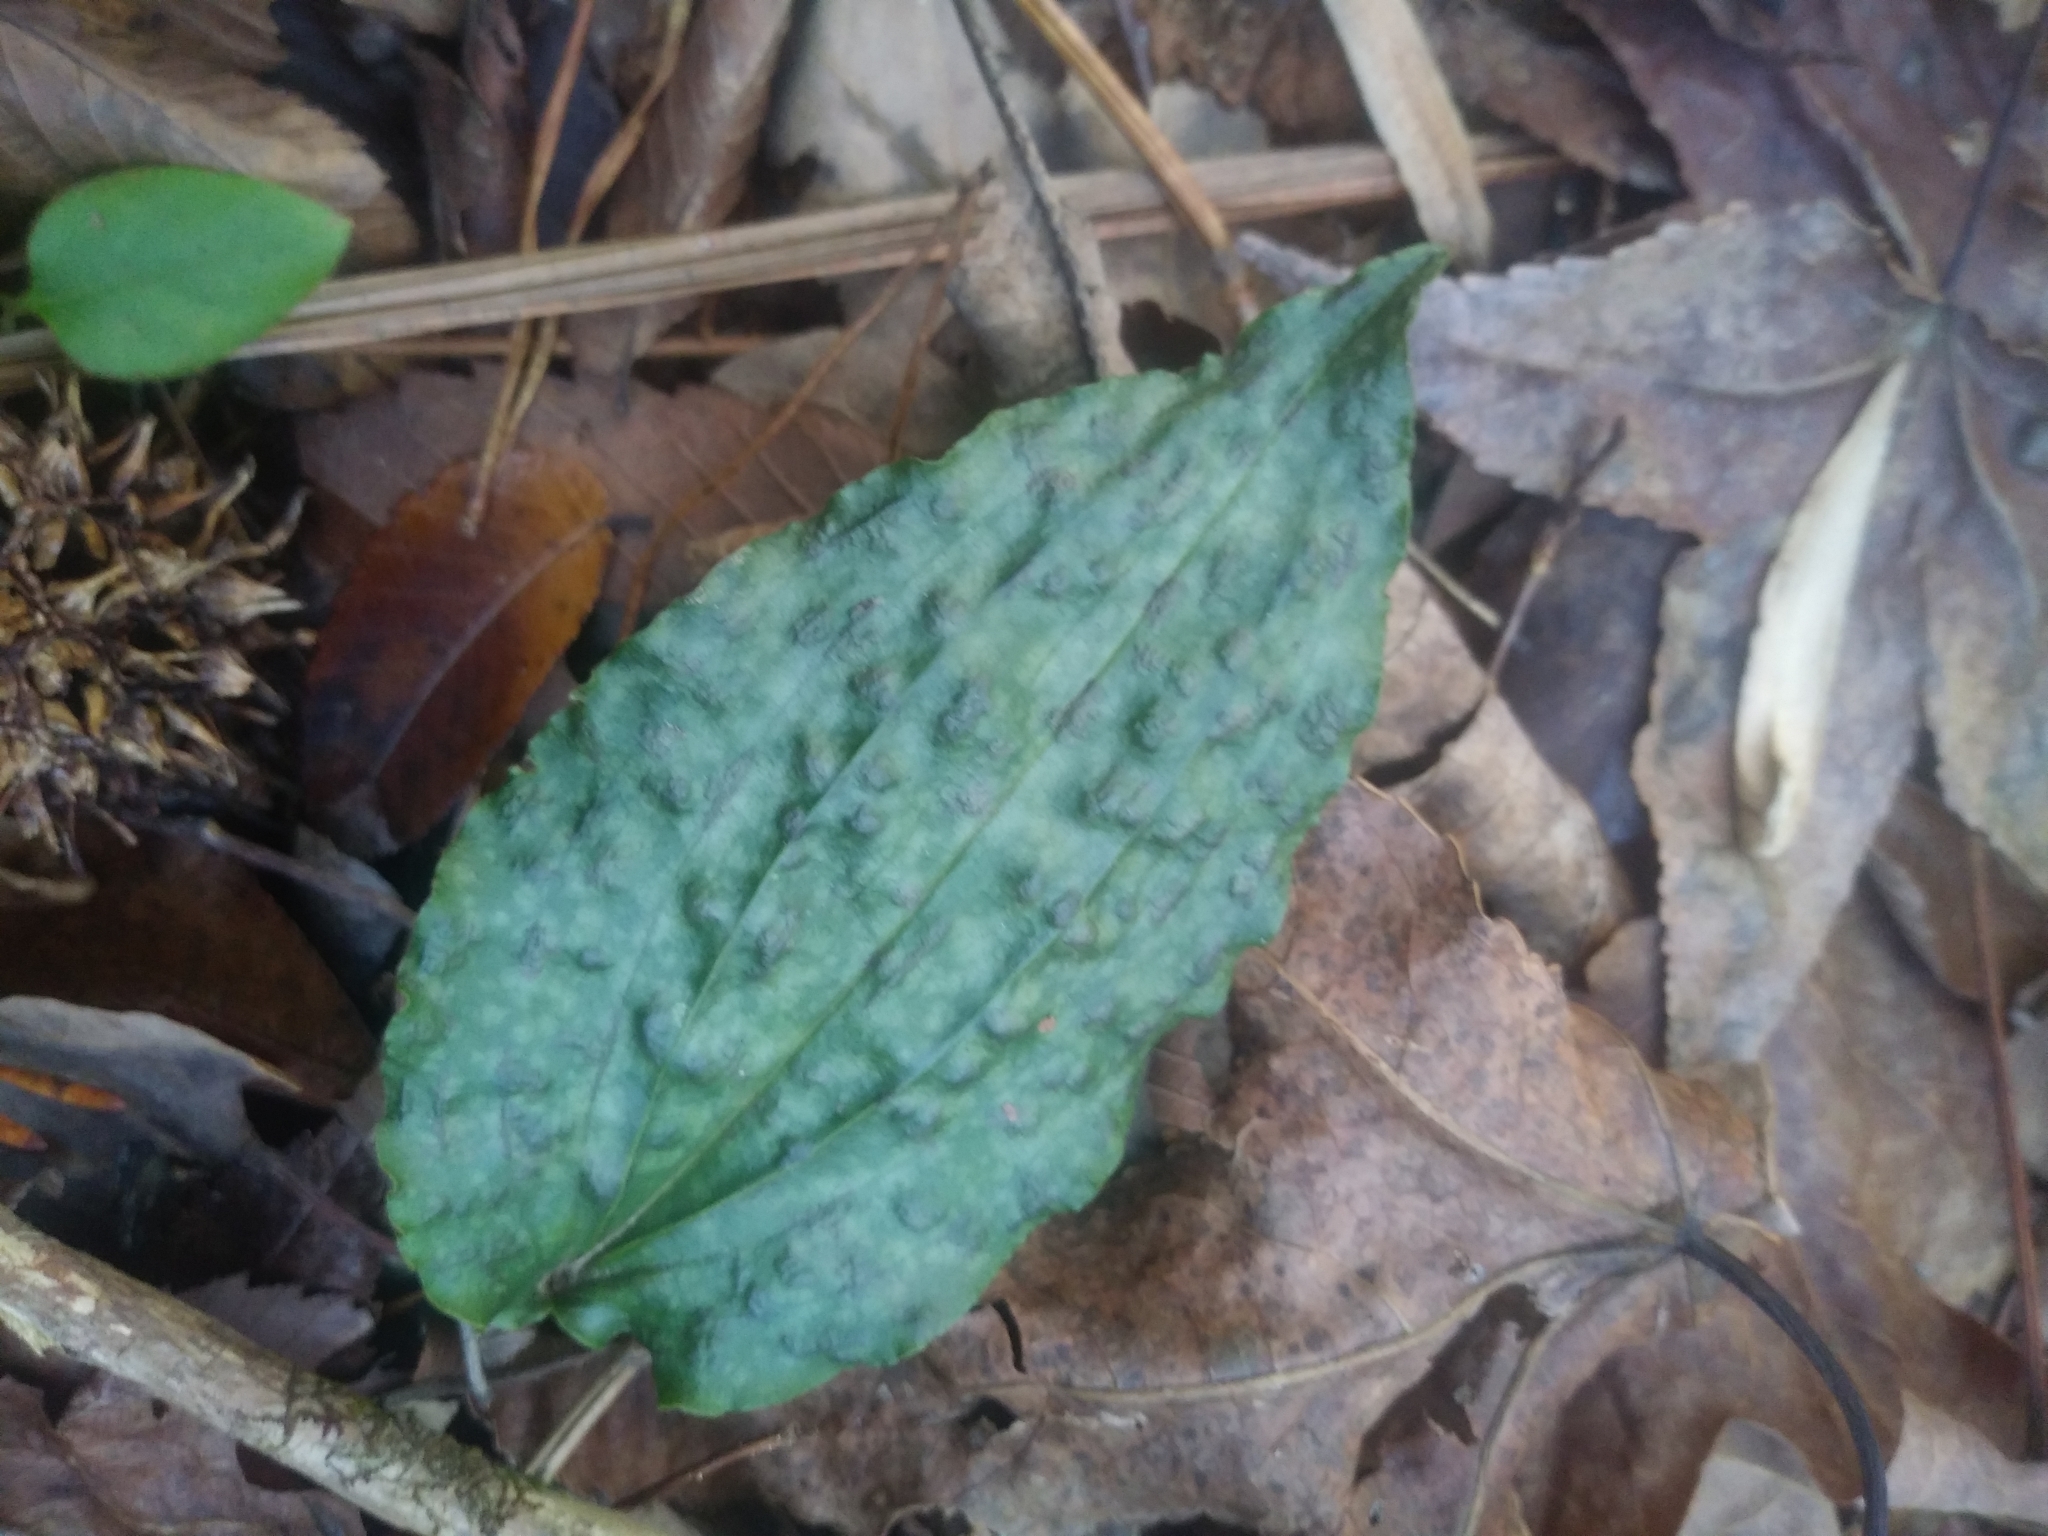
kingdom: Plantae
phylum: Tracheophyta
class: Liliopsida
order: Asparagales
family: Orchidaceae
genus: Tipularia
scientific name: Tipularia discolor
